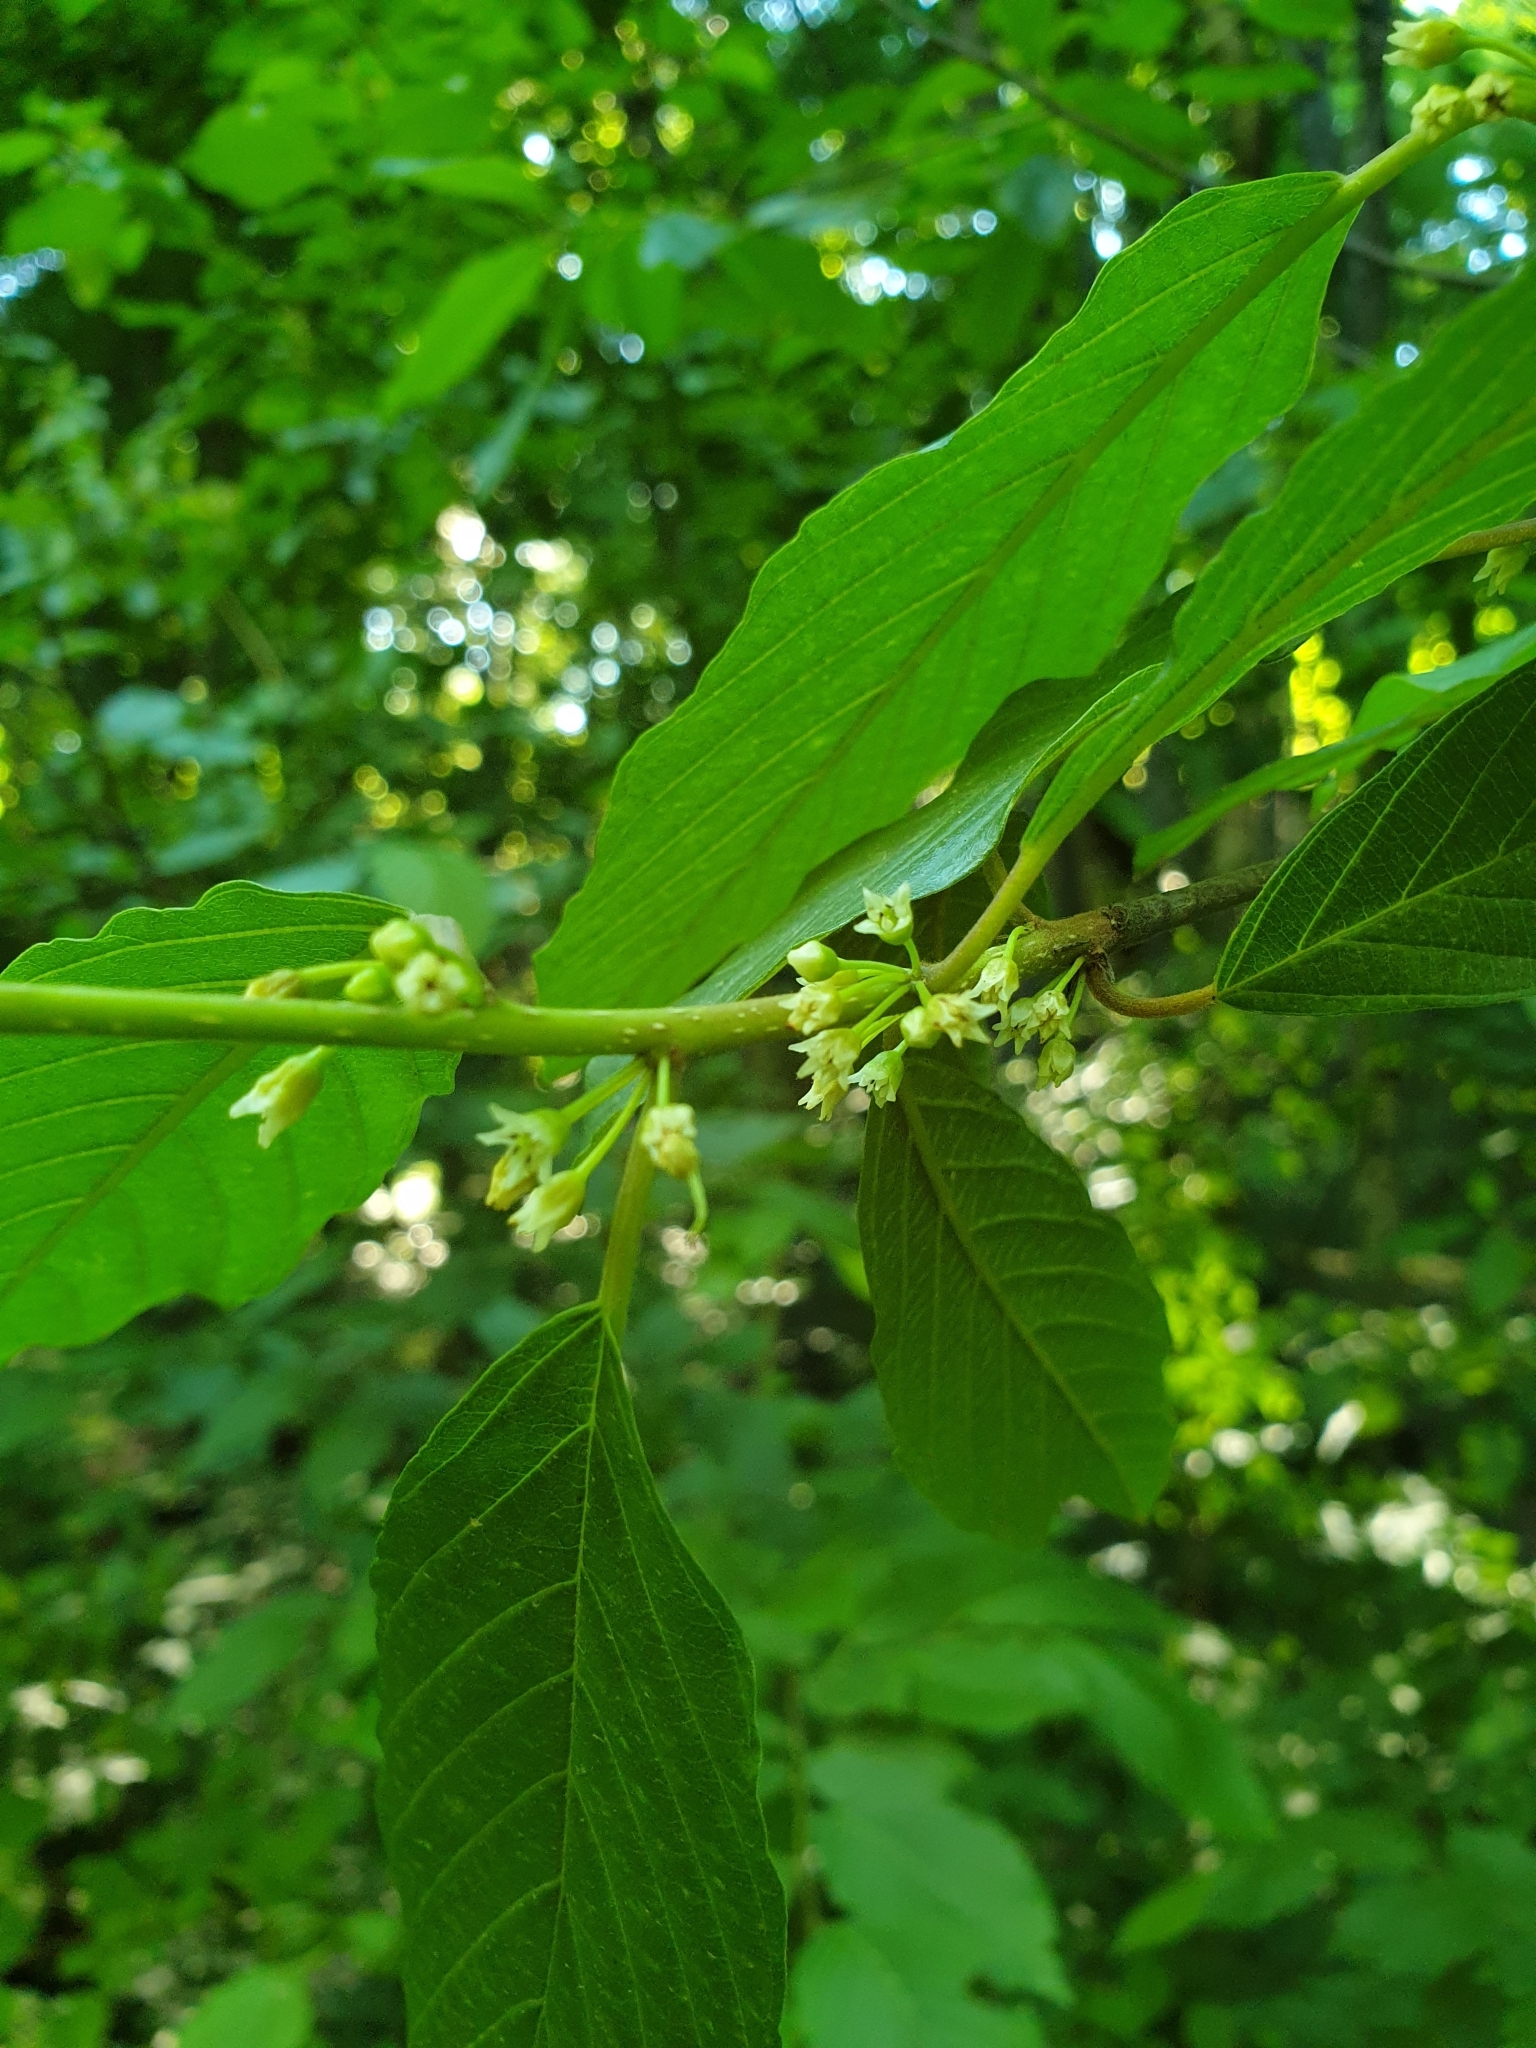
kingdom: Plantae
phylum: Tracheophyta
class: Magnoliopsida
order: Rosales
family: Rhamnaceae
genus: Frangula
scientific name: Frangula alnus
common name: Alder buckthorn
